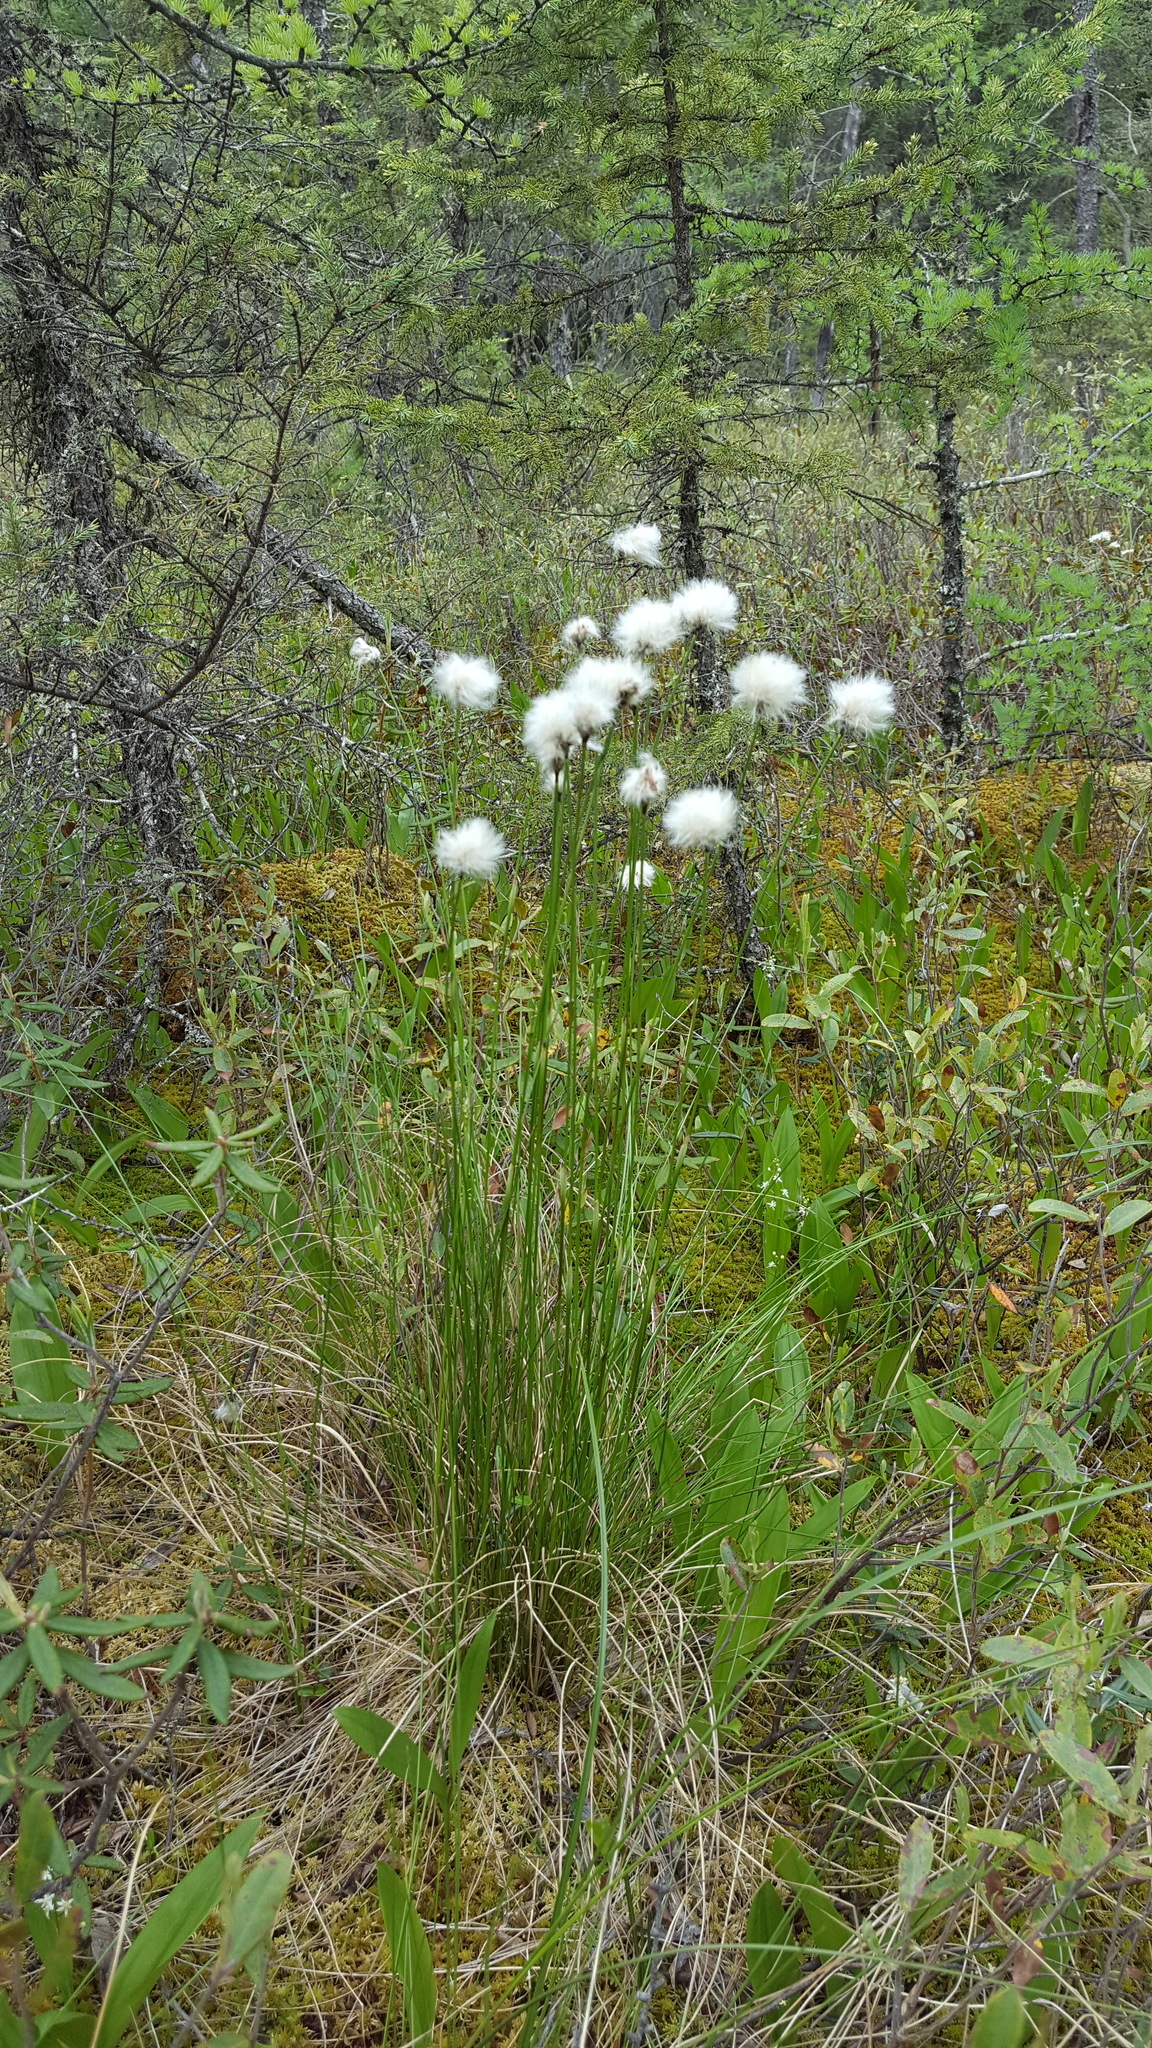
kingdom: Plantae
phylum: Tracheophyta
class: Liliopsida
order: Poales
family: Cyperaceae
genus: Eriophorum
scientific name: Eriophorum vaginatum
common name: Hare's-tail cottongrass
